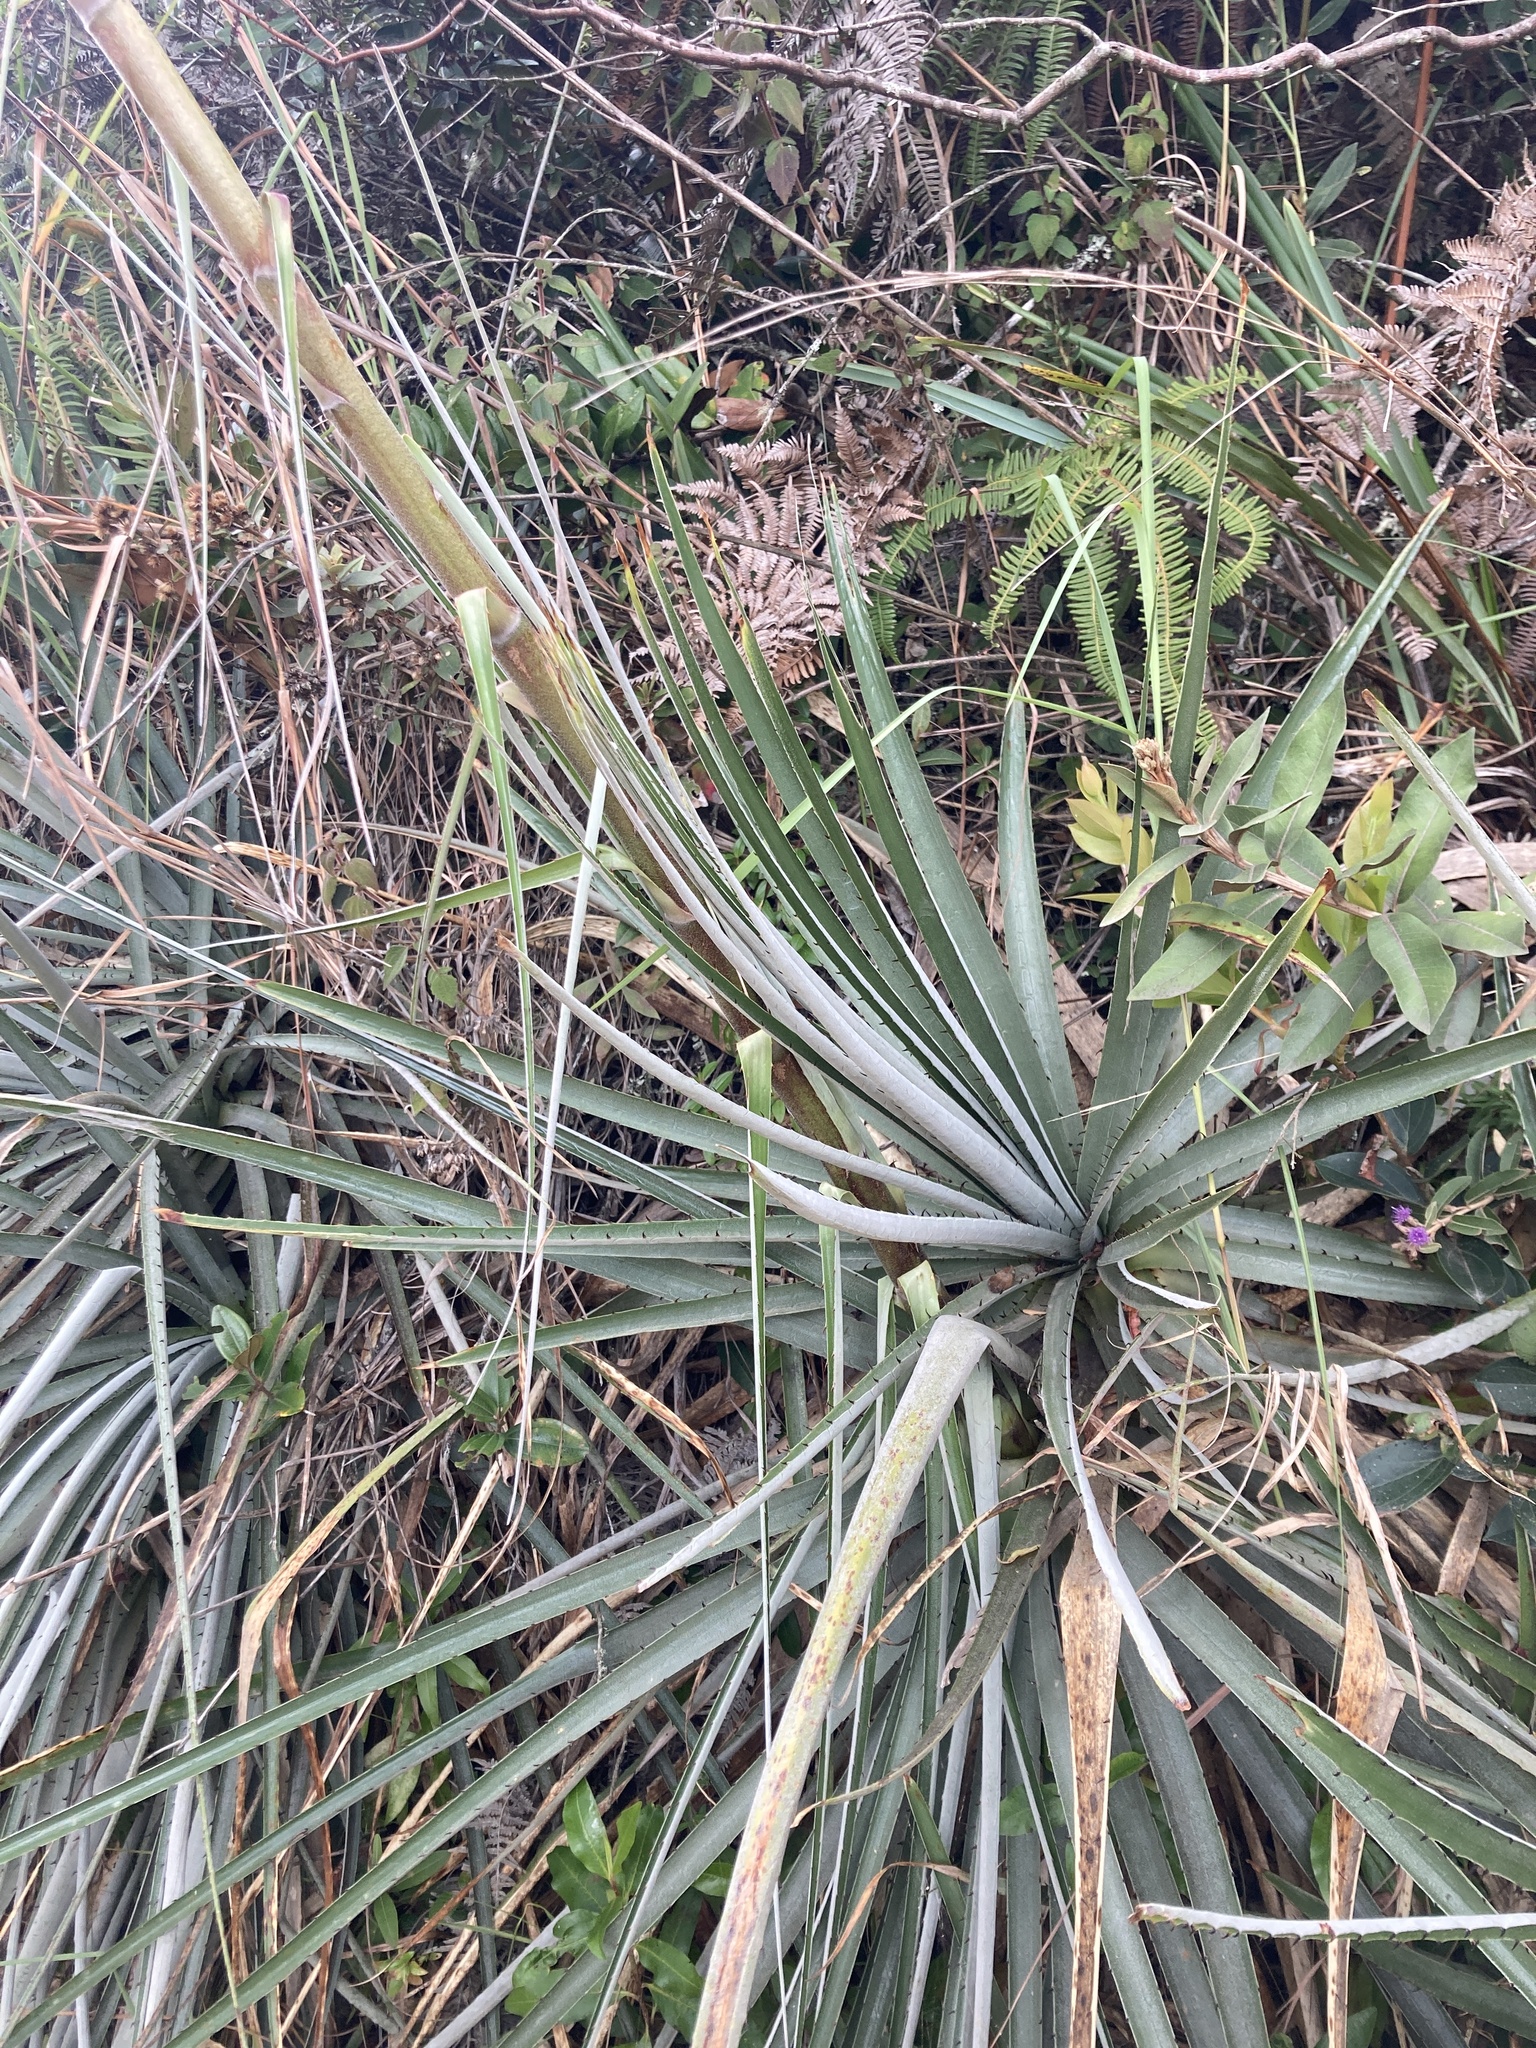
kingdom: Plantae
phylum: Tracheophyta
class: Liliopsida
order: Poales
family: Bromeliaceae
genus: Puya
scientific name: Puya bicolor
